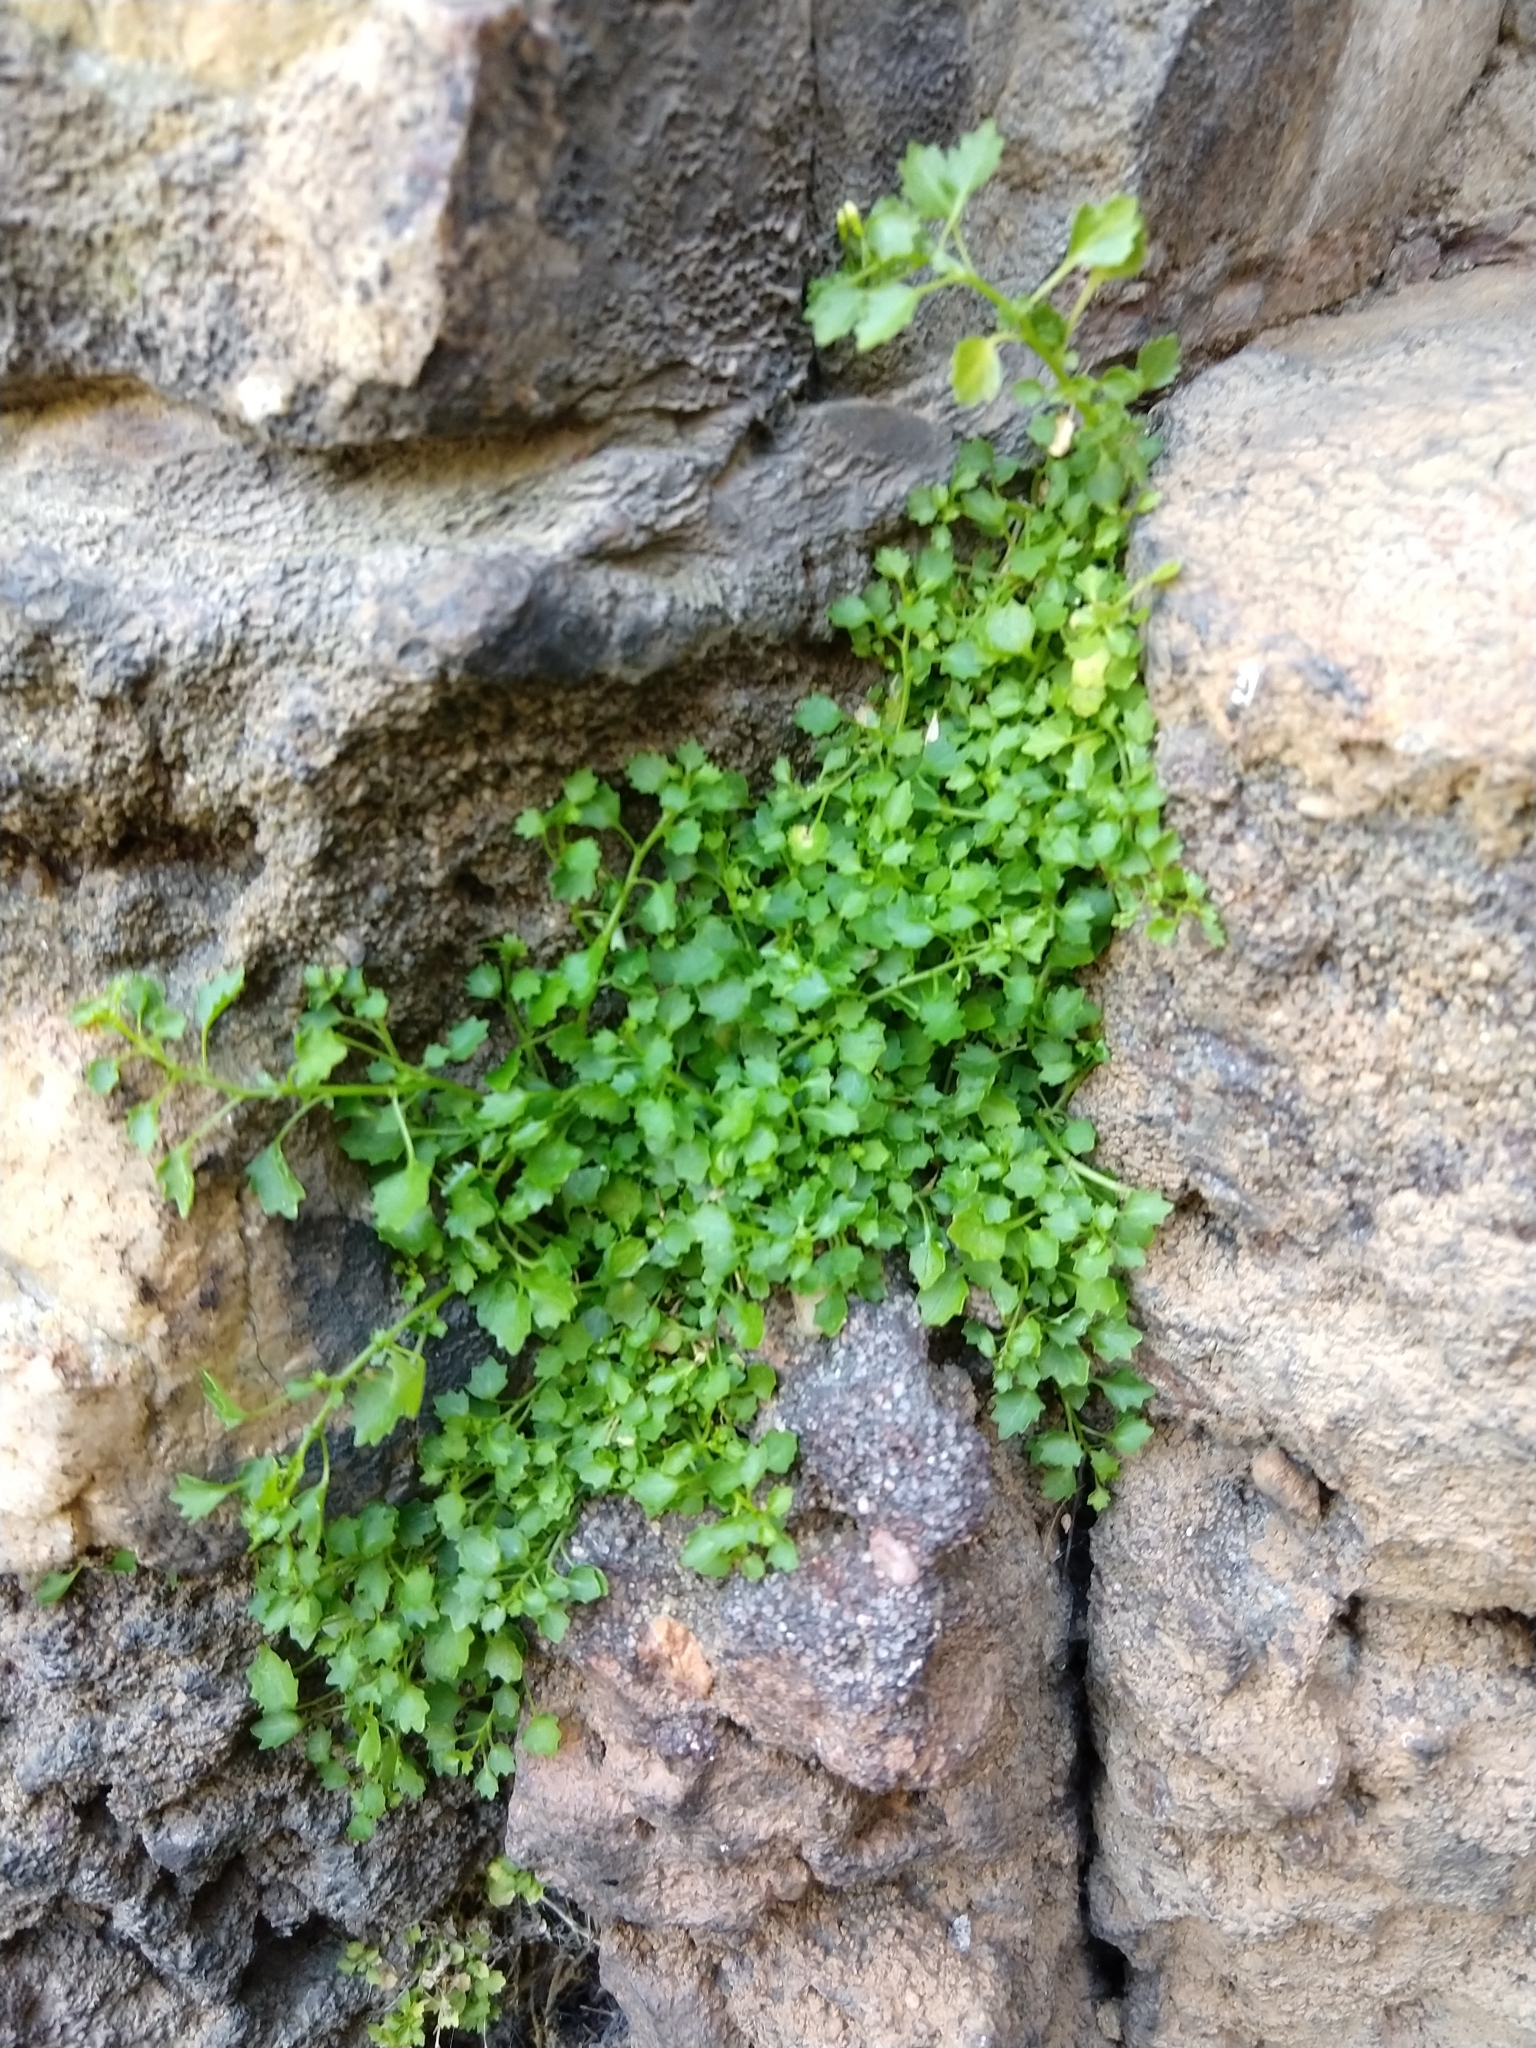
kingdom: Plantae
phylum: Tracheophyta
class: Magnoliopsida
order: Asterales
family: Campanulaceae
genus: Wimmerella
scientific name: Wimmerella hedyotidea
